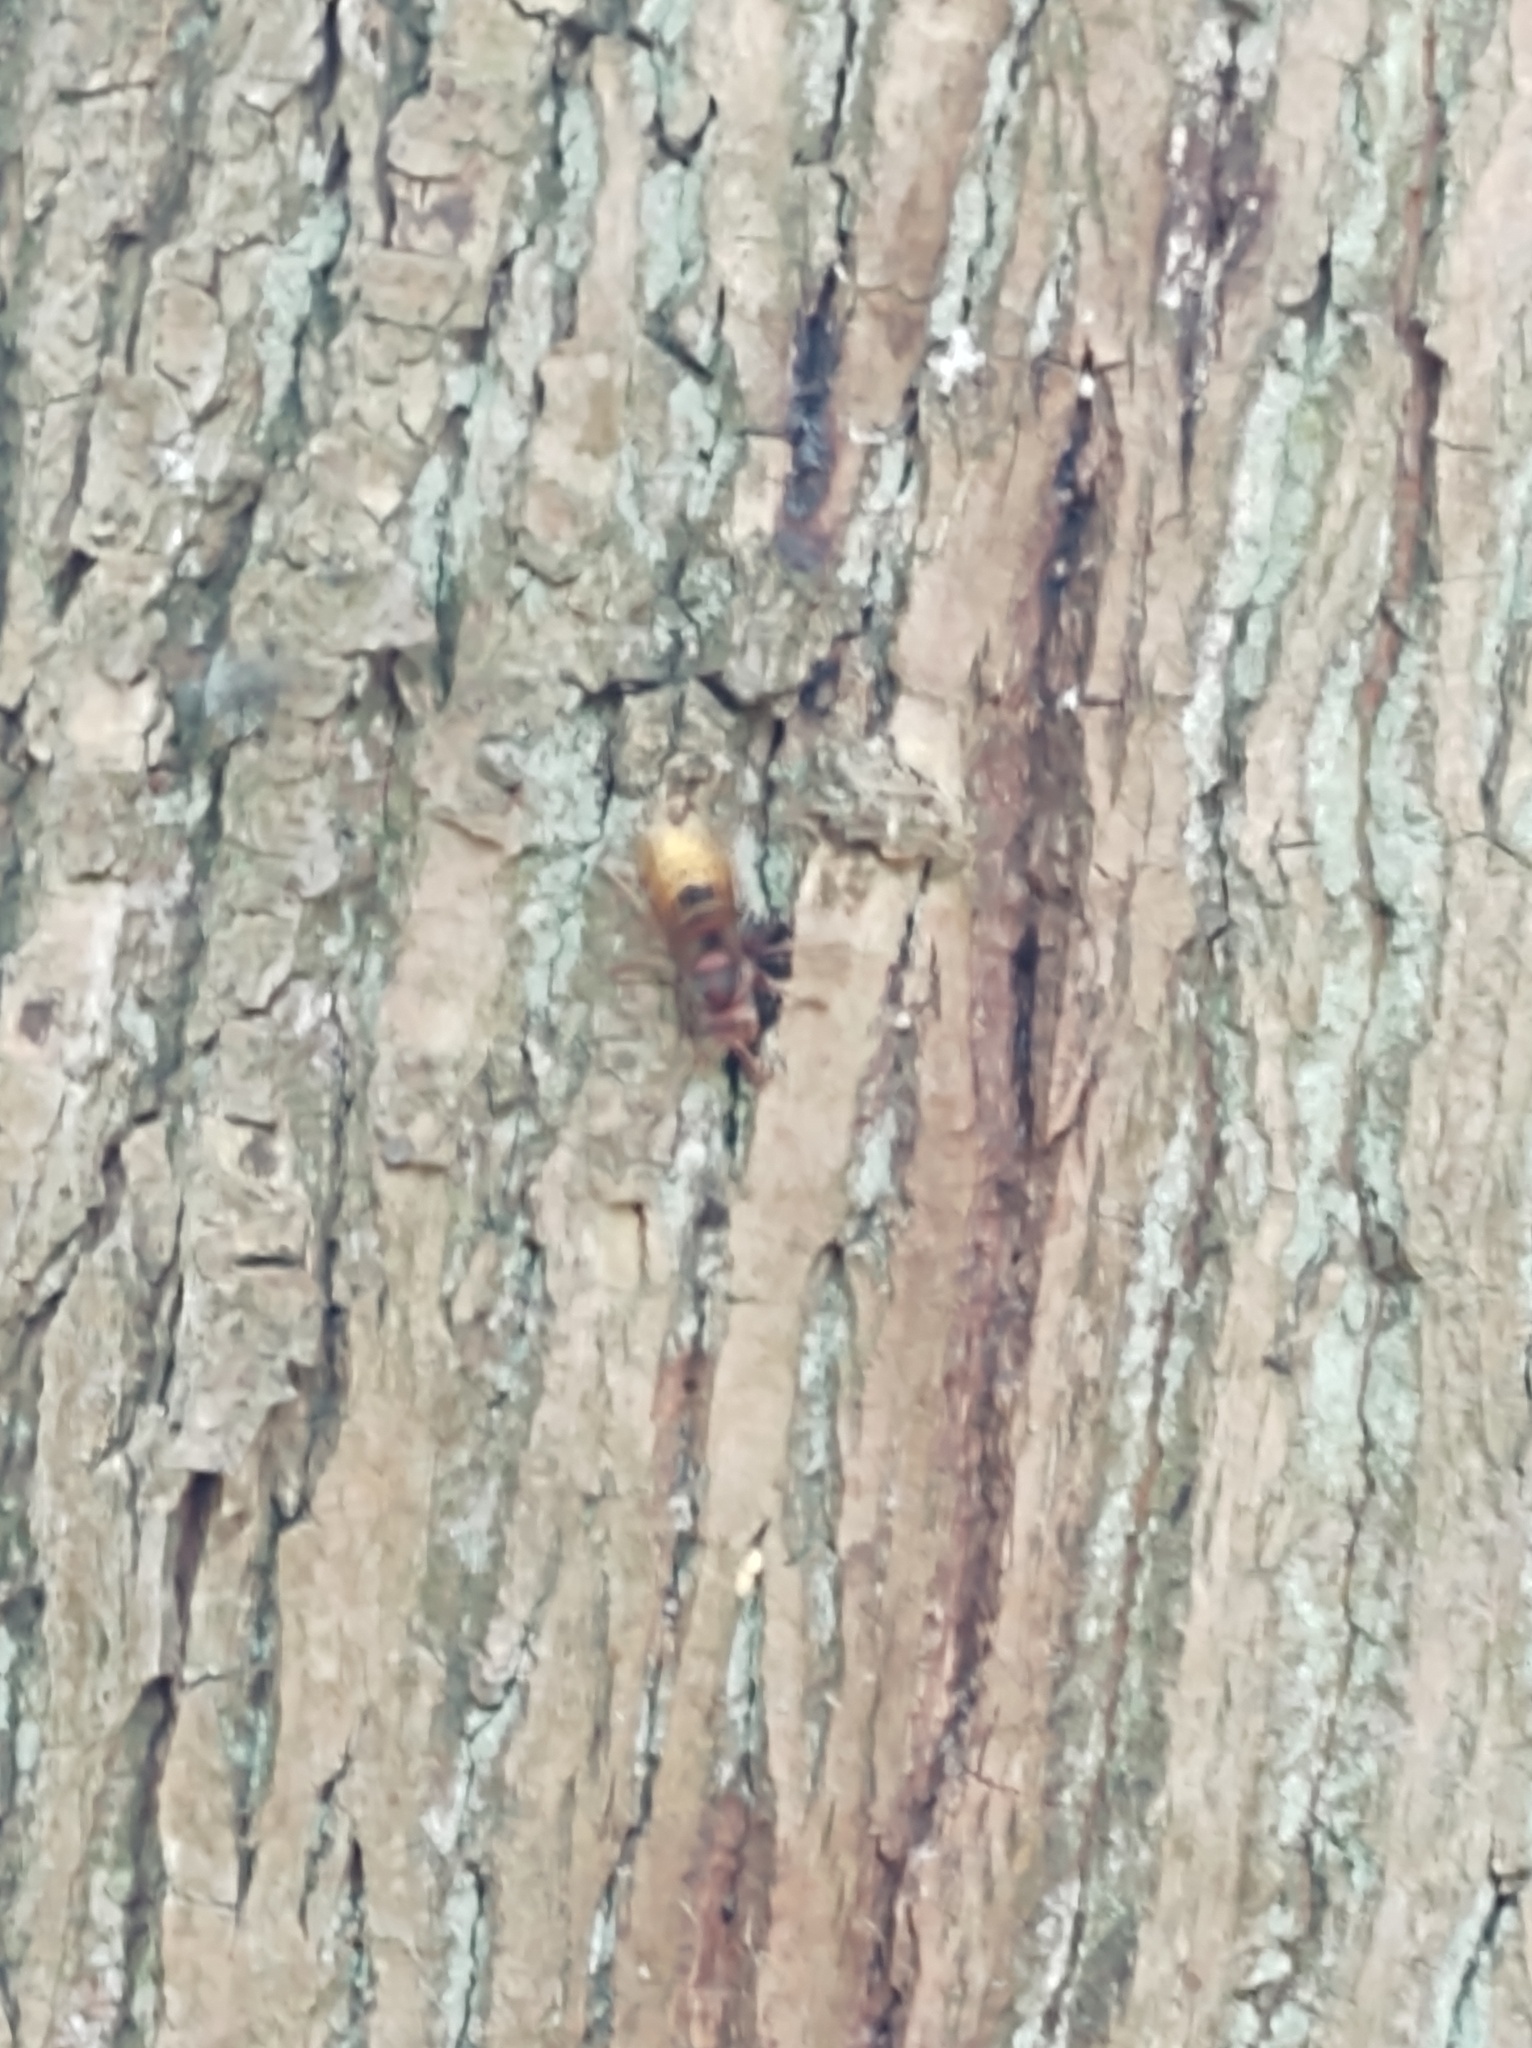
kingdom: Animalia
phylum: Arthropoda
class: Insecta
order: Hymenoptera
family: Vespidae
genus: Vespa
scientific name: Vespa crabro
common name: Hornet
